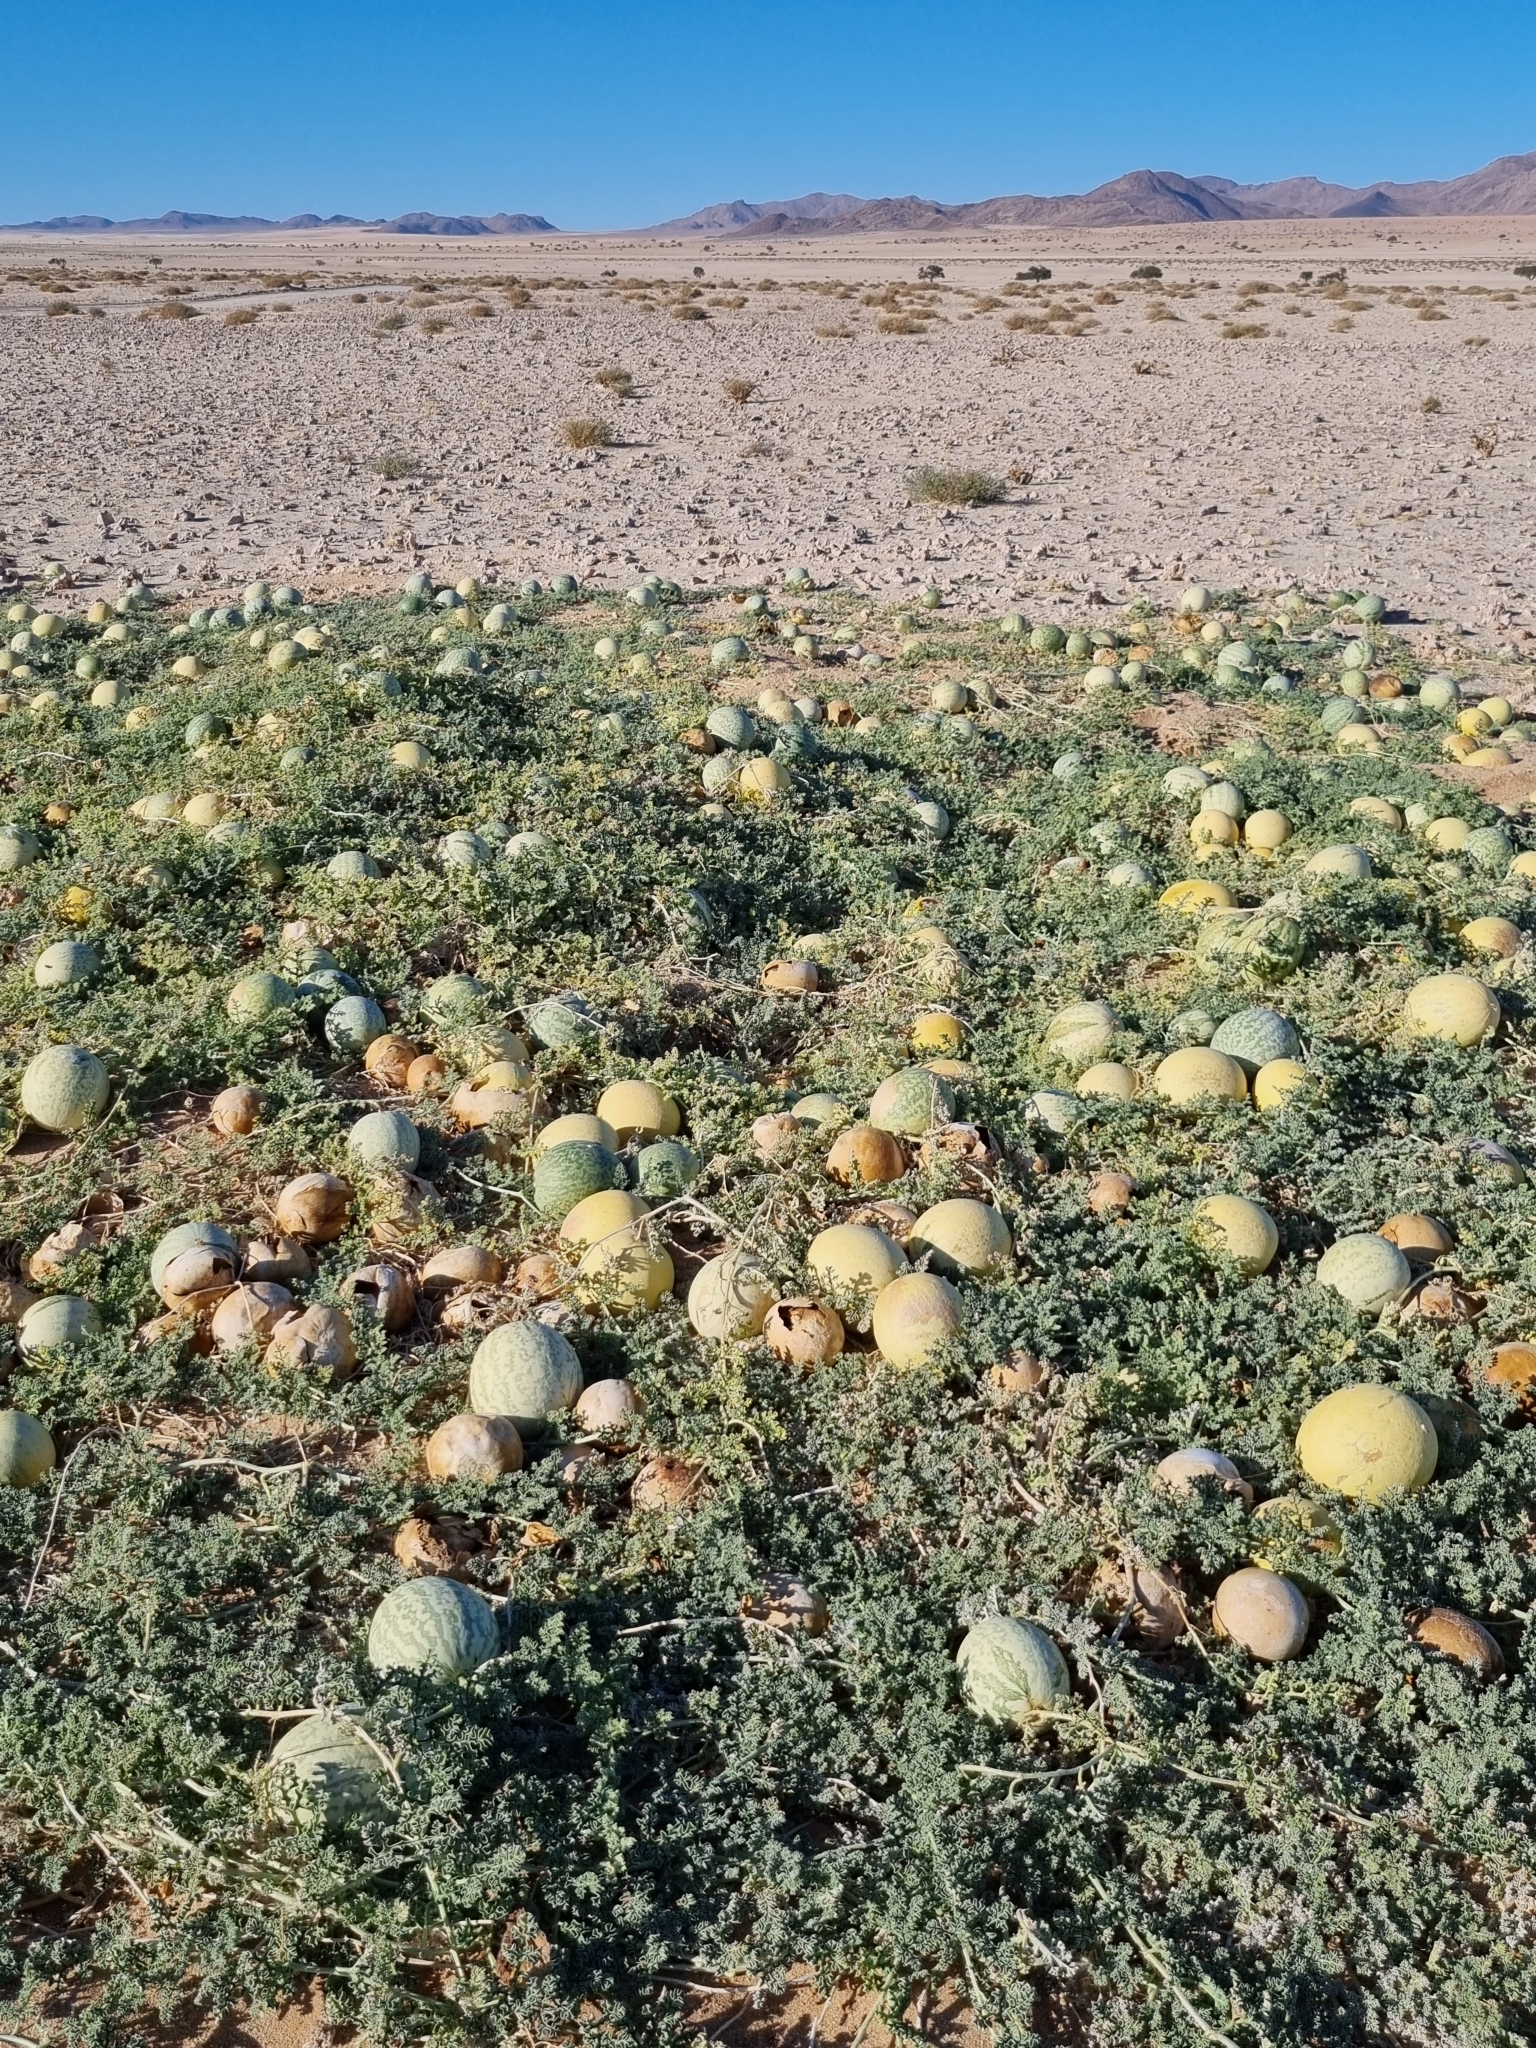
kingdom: Plantae
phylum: Tracheophyta
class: Magnoliopsida
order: Cucurbitales
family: Cucurbitaceae
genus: Citrullus
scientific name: Citrullus ecirrhosus
